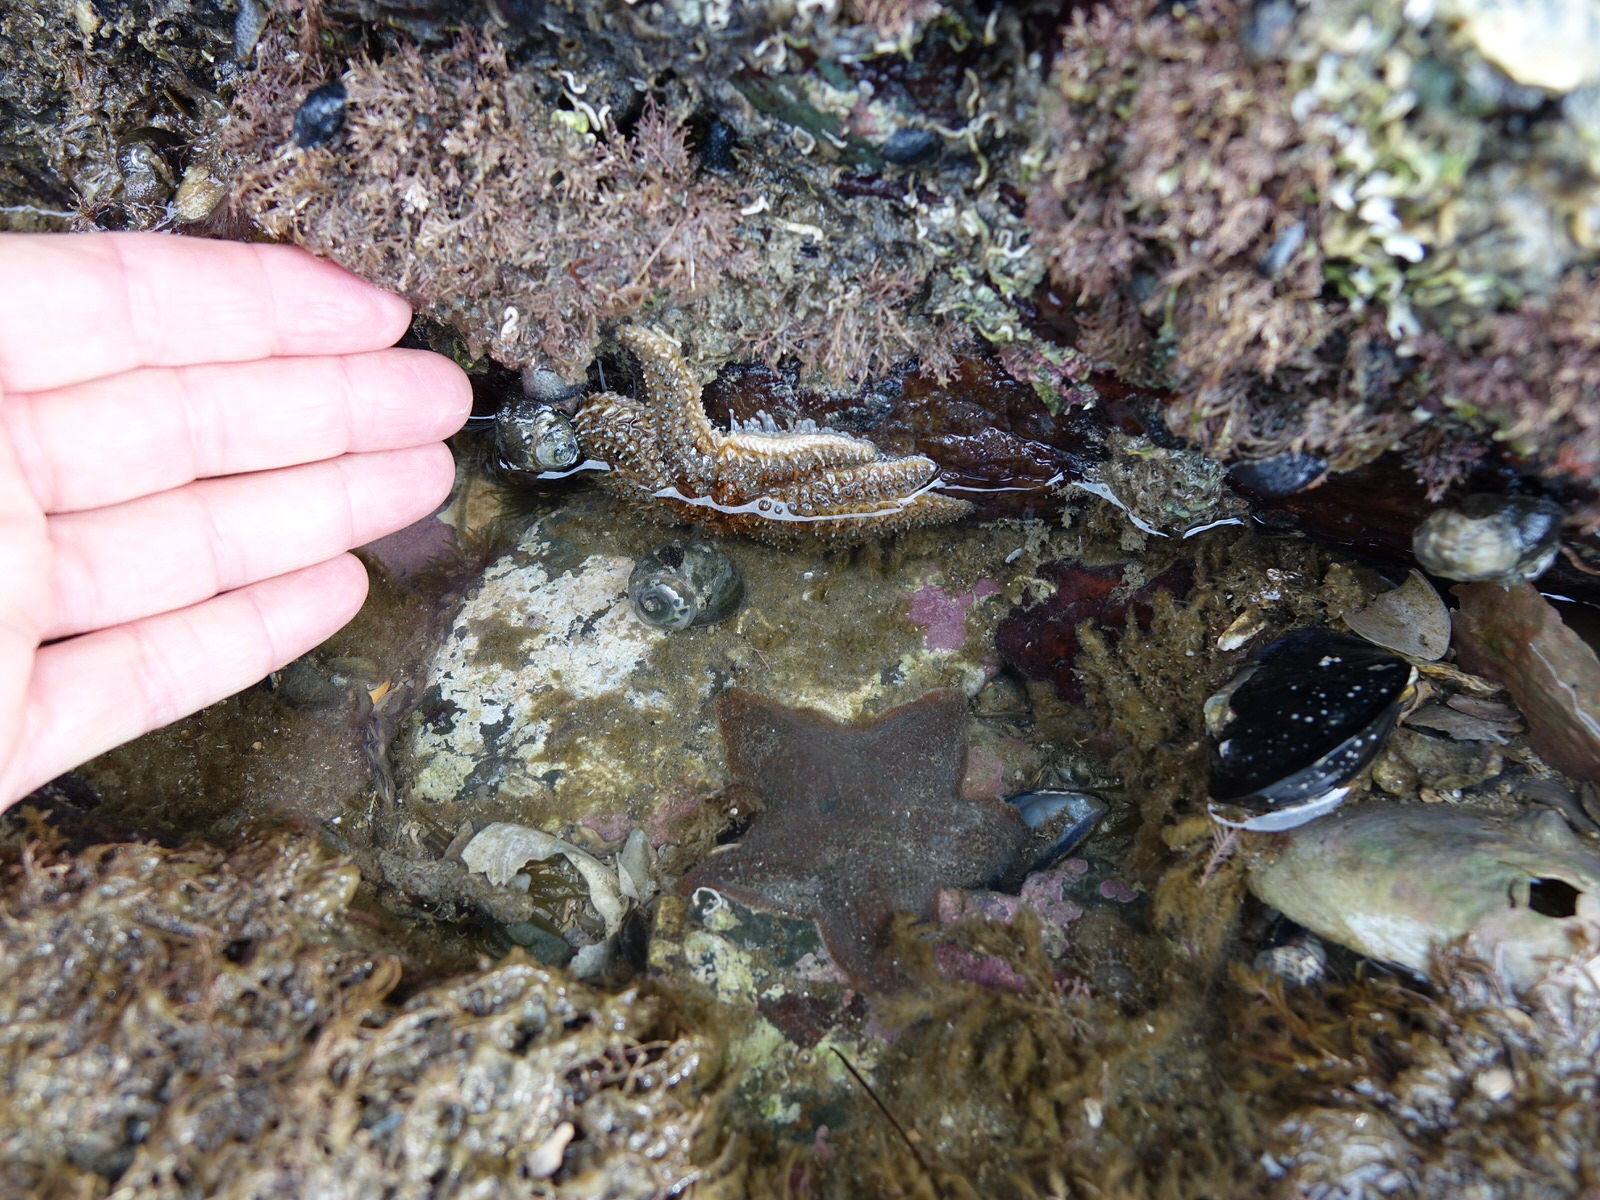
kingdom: Animalia
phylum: Echinodermata
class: Asteroidea
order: Forcipulatida
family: Asteriidae
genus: Coscinasterias
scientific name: Coscinasterias muricata
